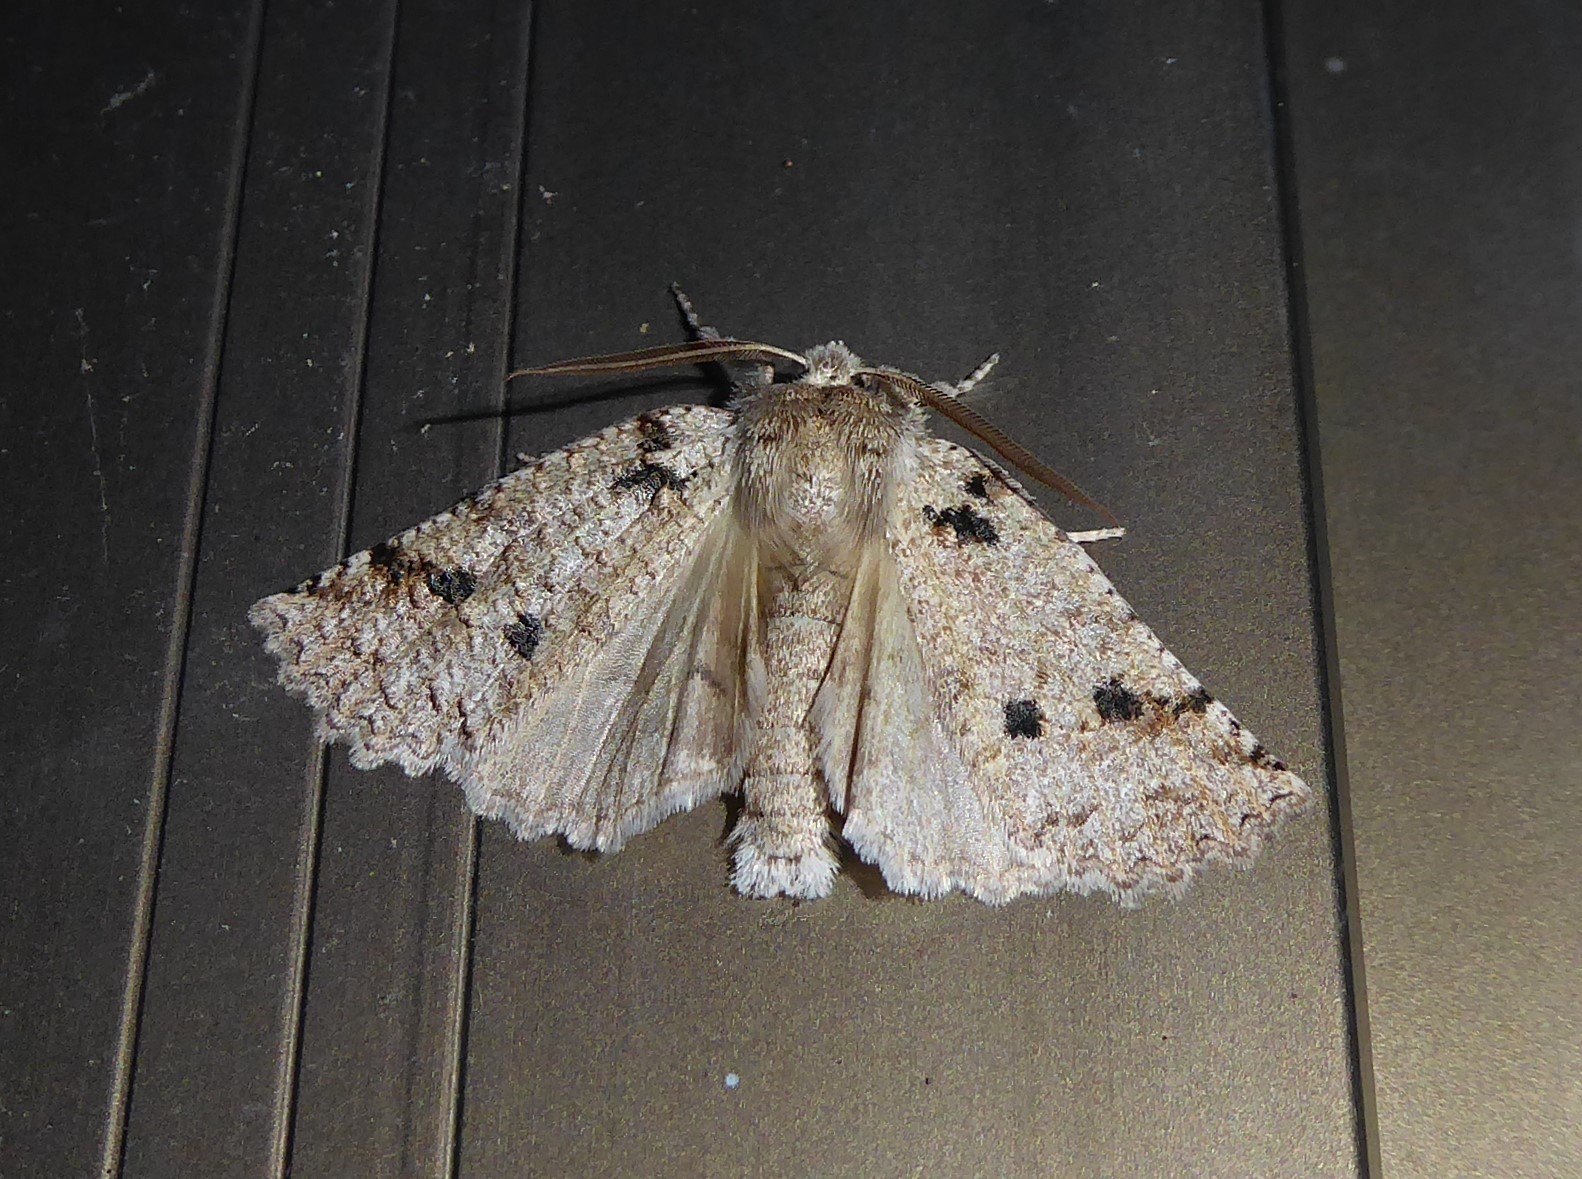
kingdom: Animalia
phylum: Arthropoda
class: Insecta
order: Lepidoptera
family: Geometridae
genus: Declana
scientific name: Declana floccosa
